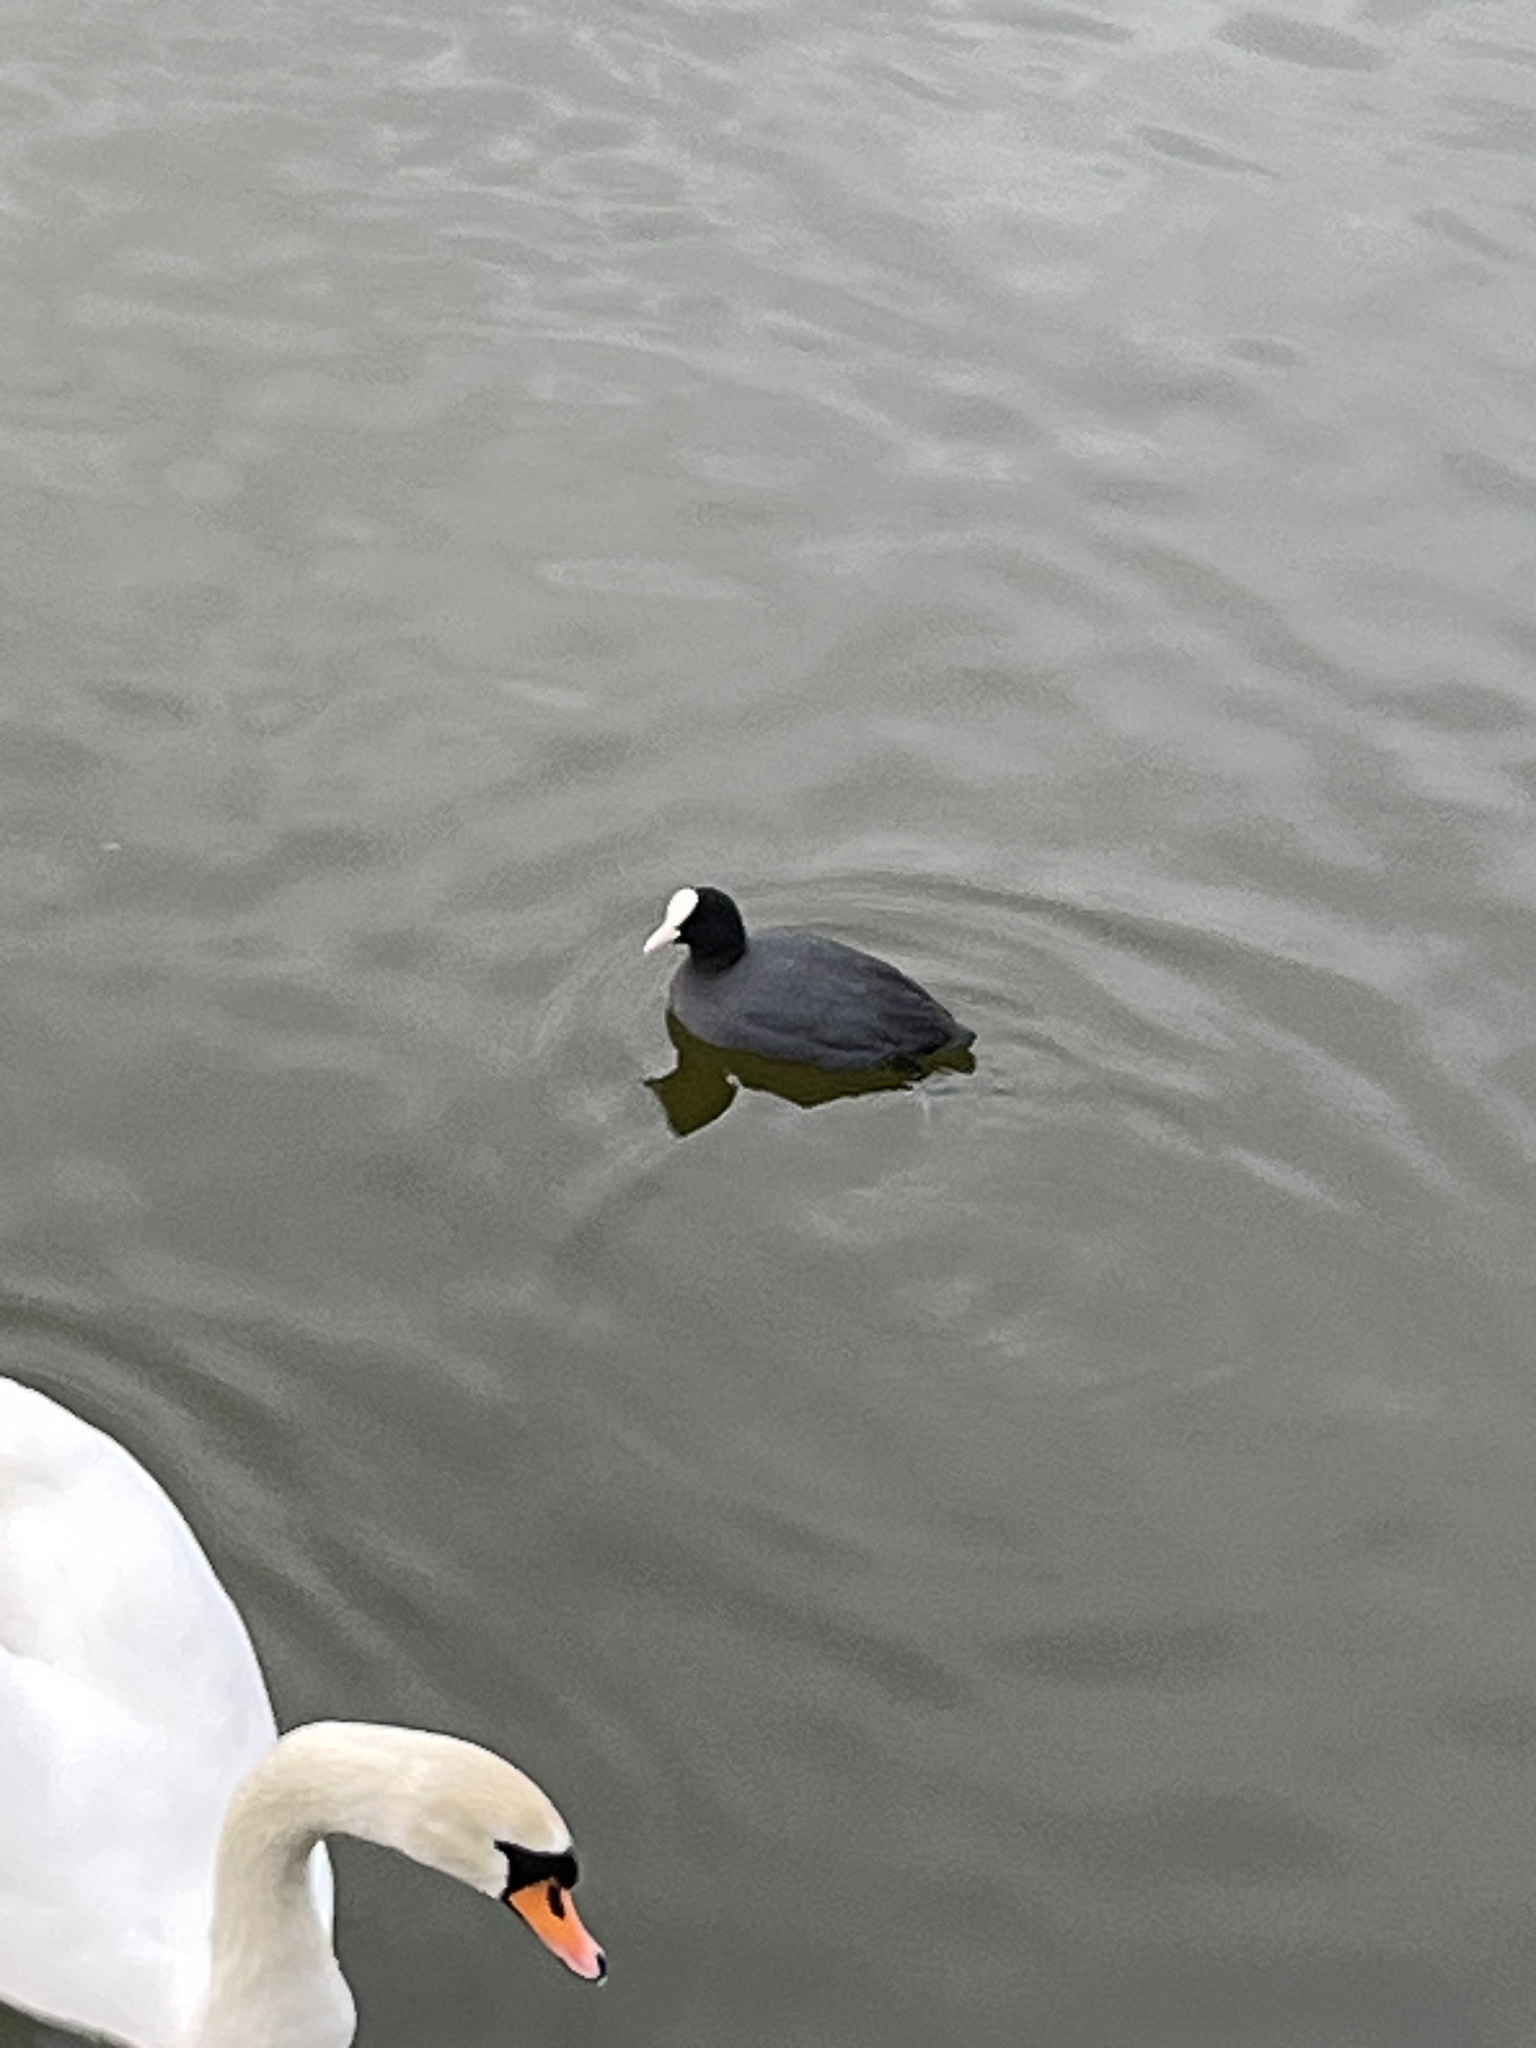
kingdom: Animalia
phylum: Chordata
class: Aves
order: Gruiformes
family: Rallidae
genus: Fulica
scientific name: Fulica atra
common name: Eurasian coot
